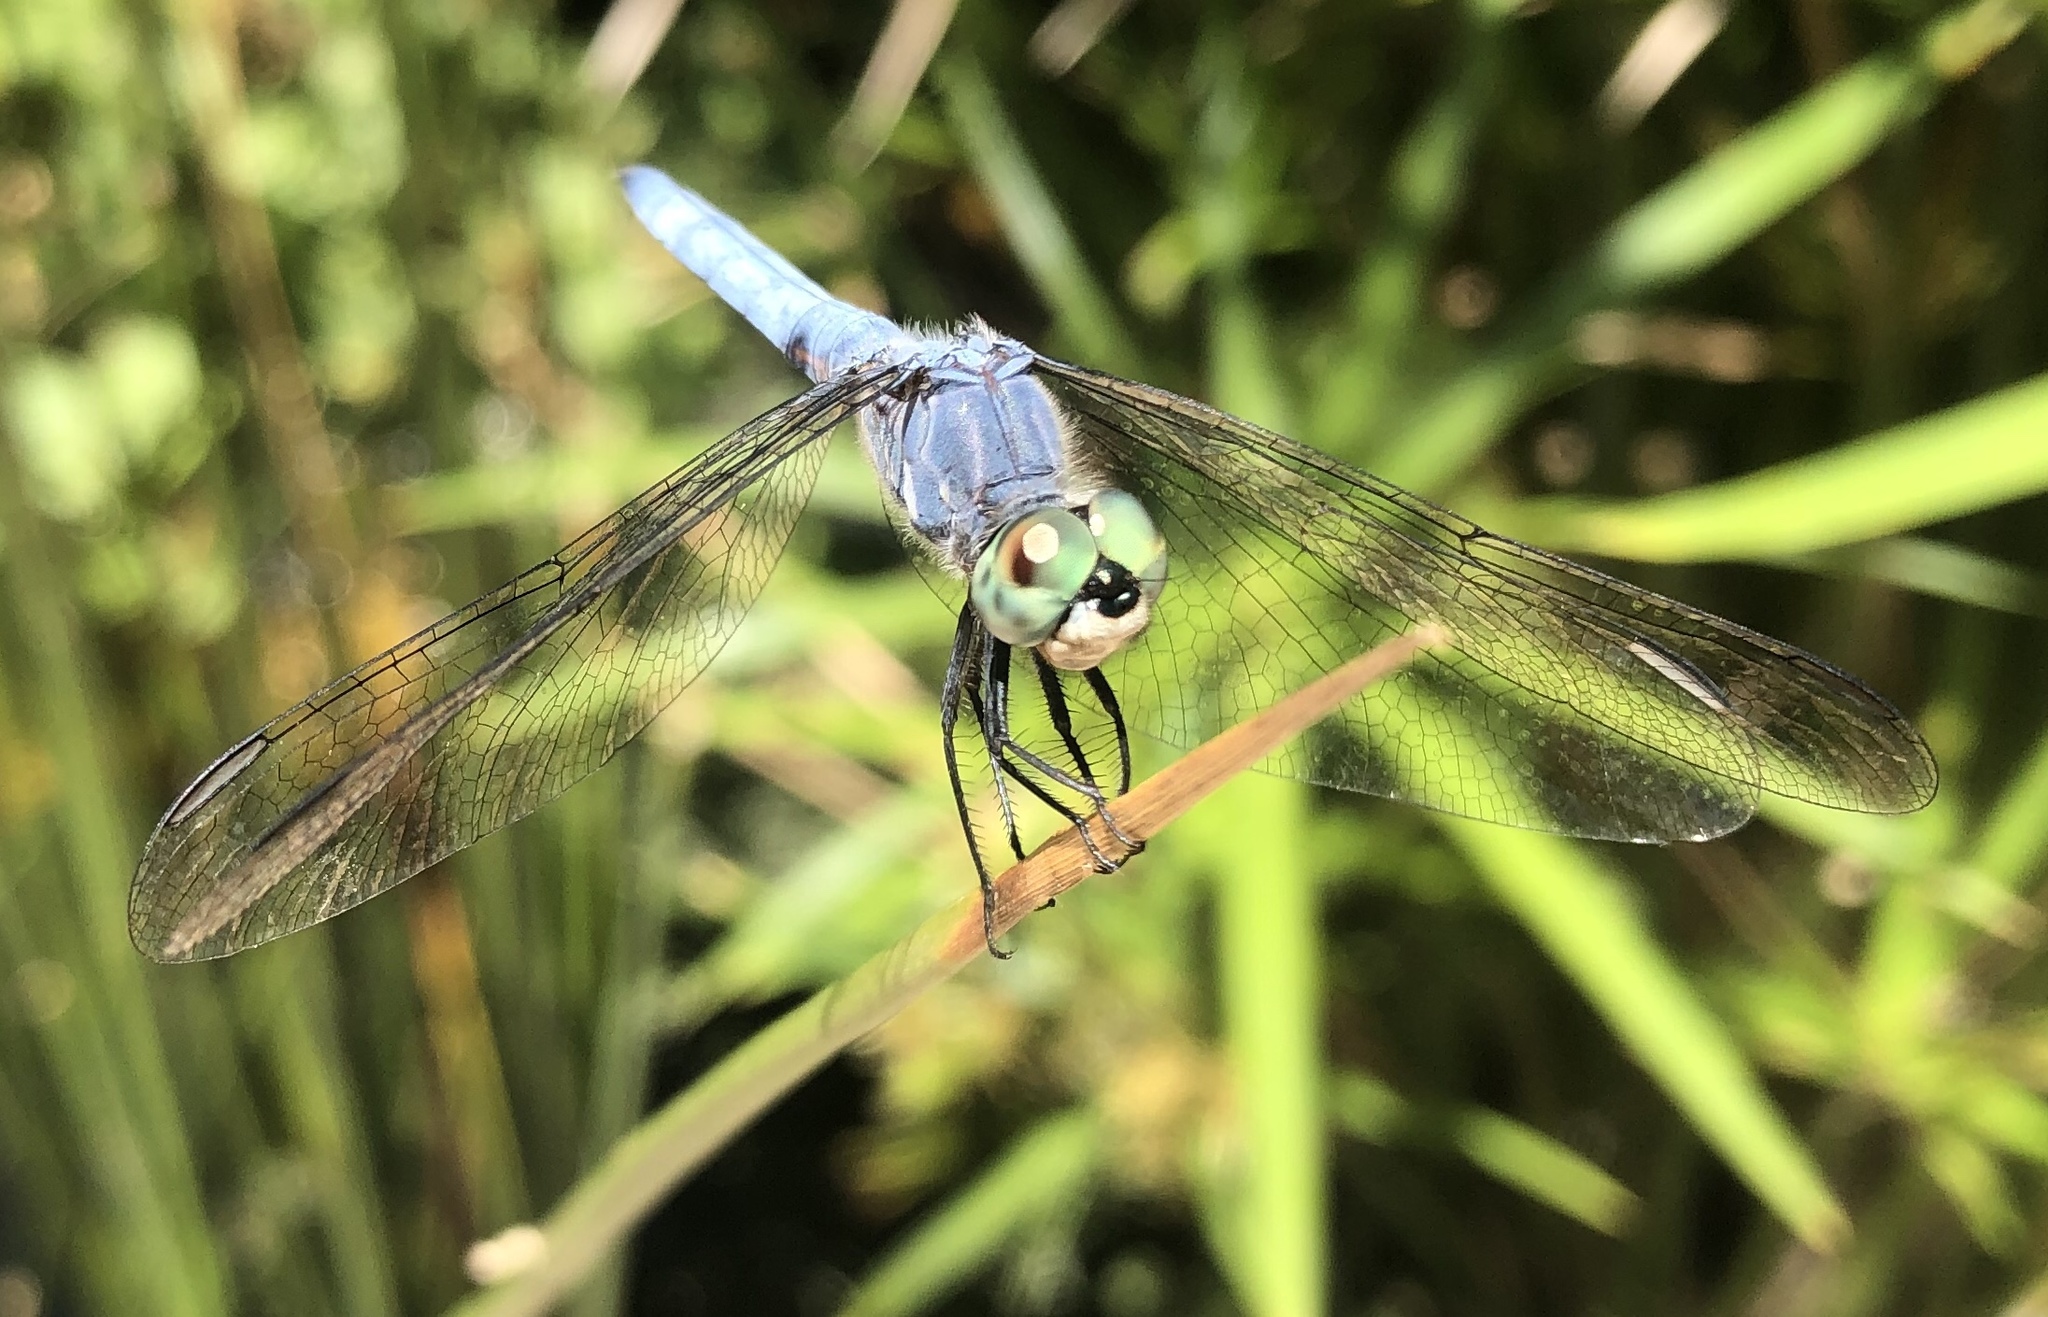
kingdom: Animalia
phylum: Arthropoda
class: Insecta
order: Odonata
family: Libellulidae
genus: Pachydiplax
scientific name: Pachydiplax longipennis
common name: Blue dasher
